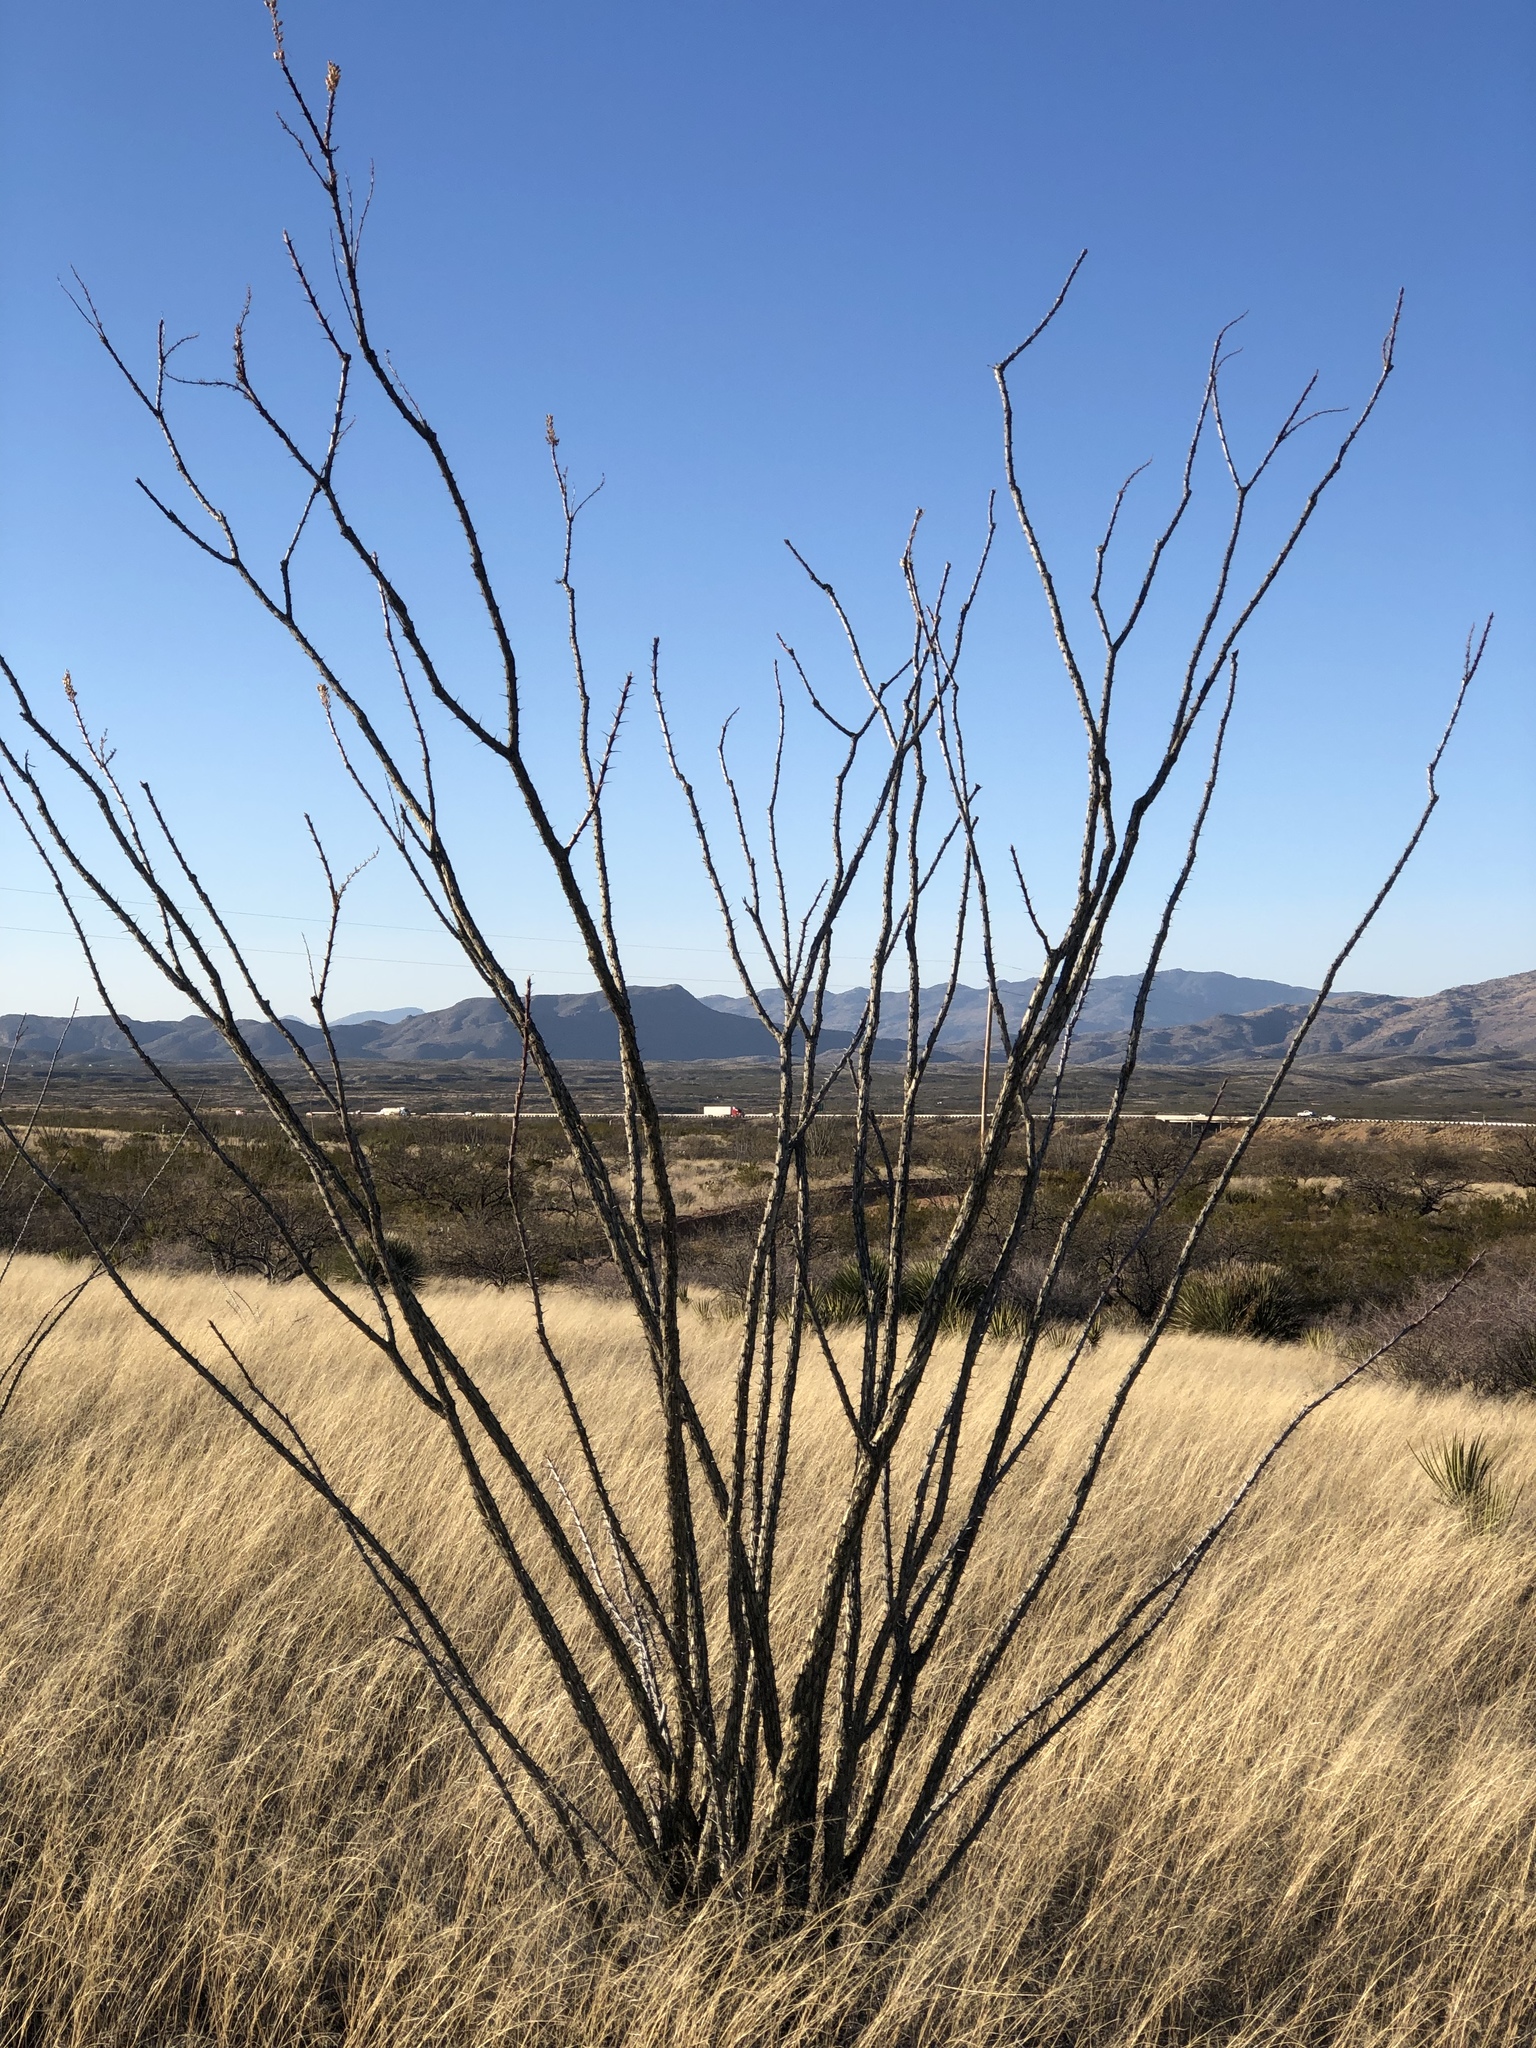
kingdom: Plantae
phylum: Tracheophyta
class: Magnoliopsida
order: Ericales
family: Fouquieriaceae
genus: Fouquieria
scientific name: Fouquieria splendens
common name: Vine-cactus
